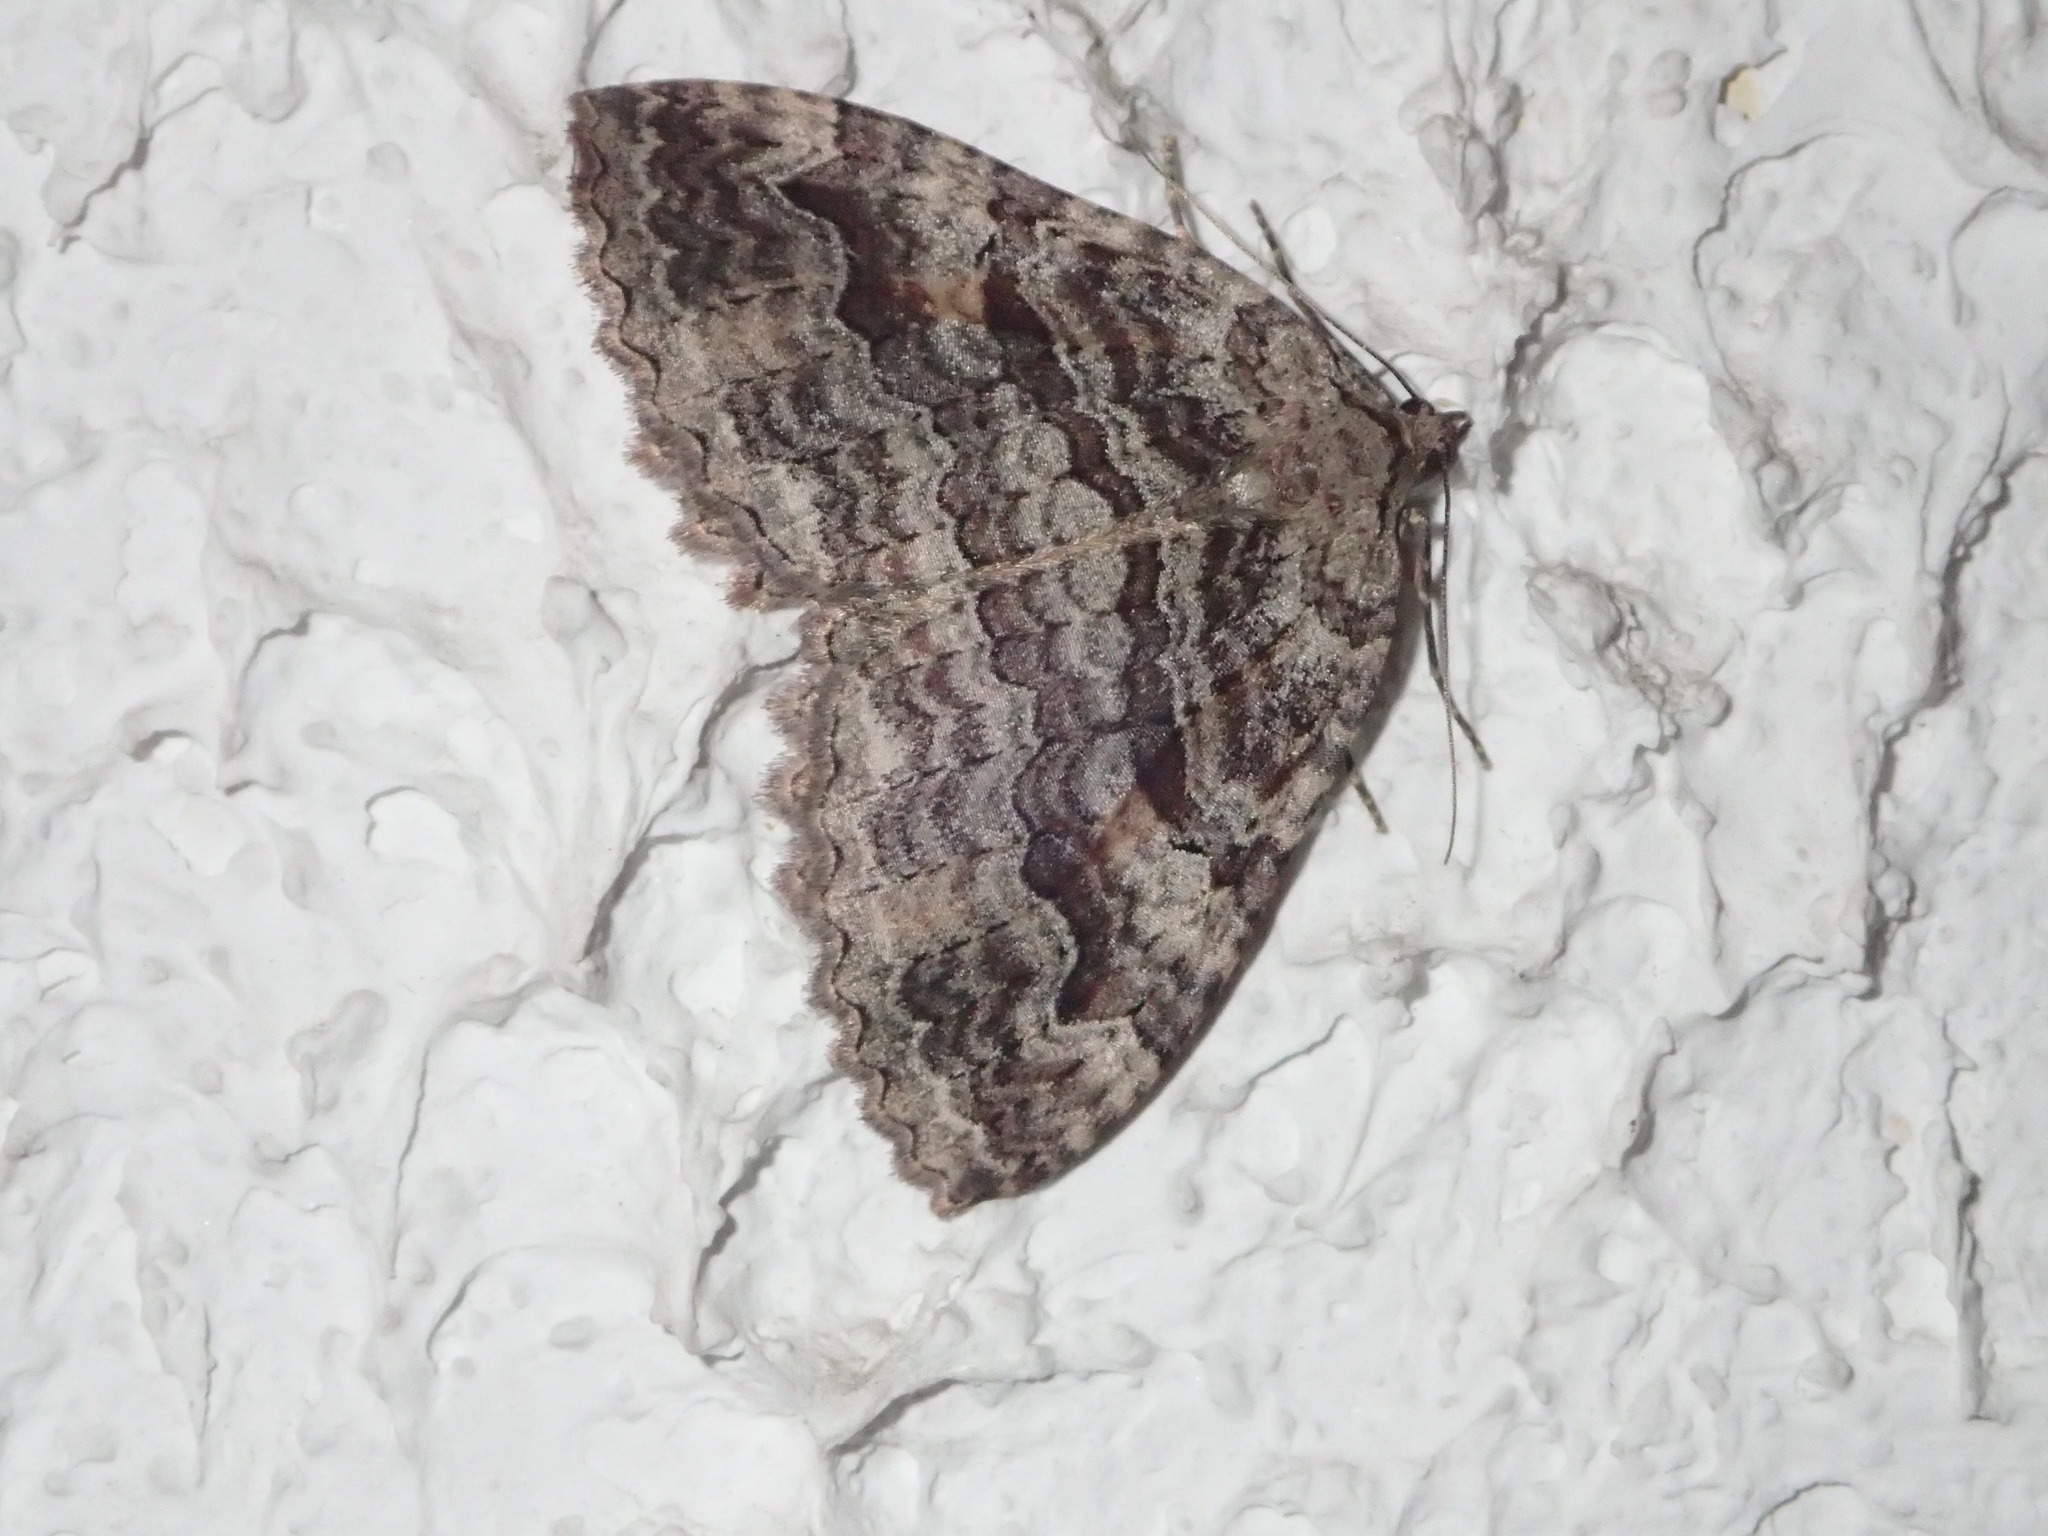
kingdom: Animalia
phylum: Arthropoda
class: Insecta
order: Lepidoptera
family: Geometridae
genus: Triphosa
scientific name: Triphosa haesitata
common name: Tissue moth
